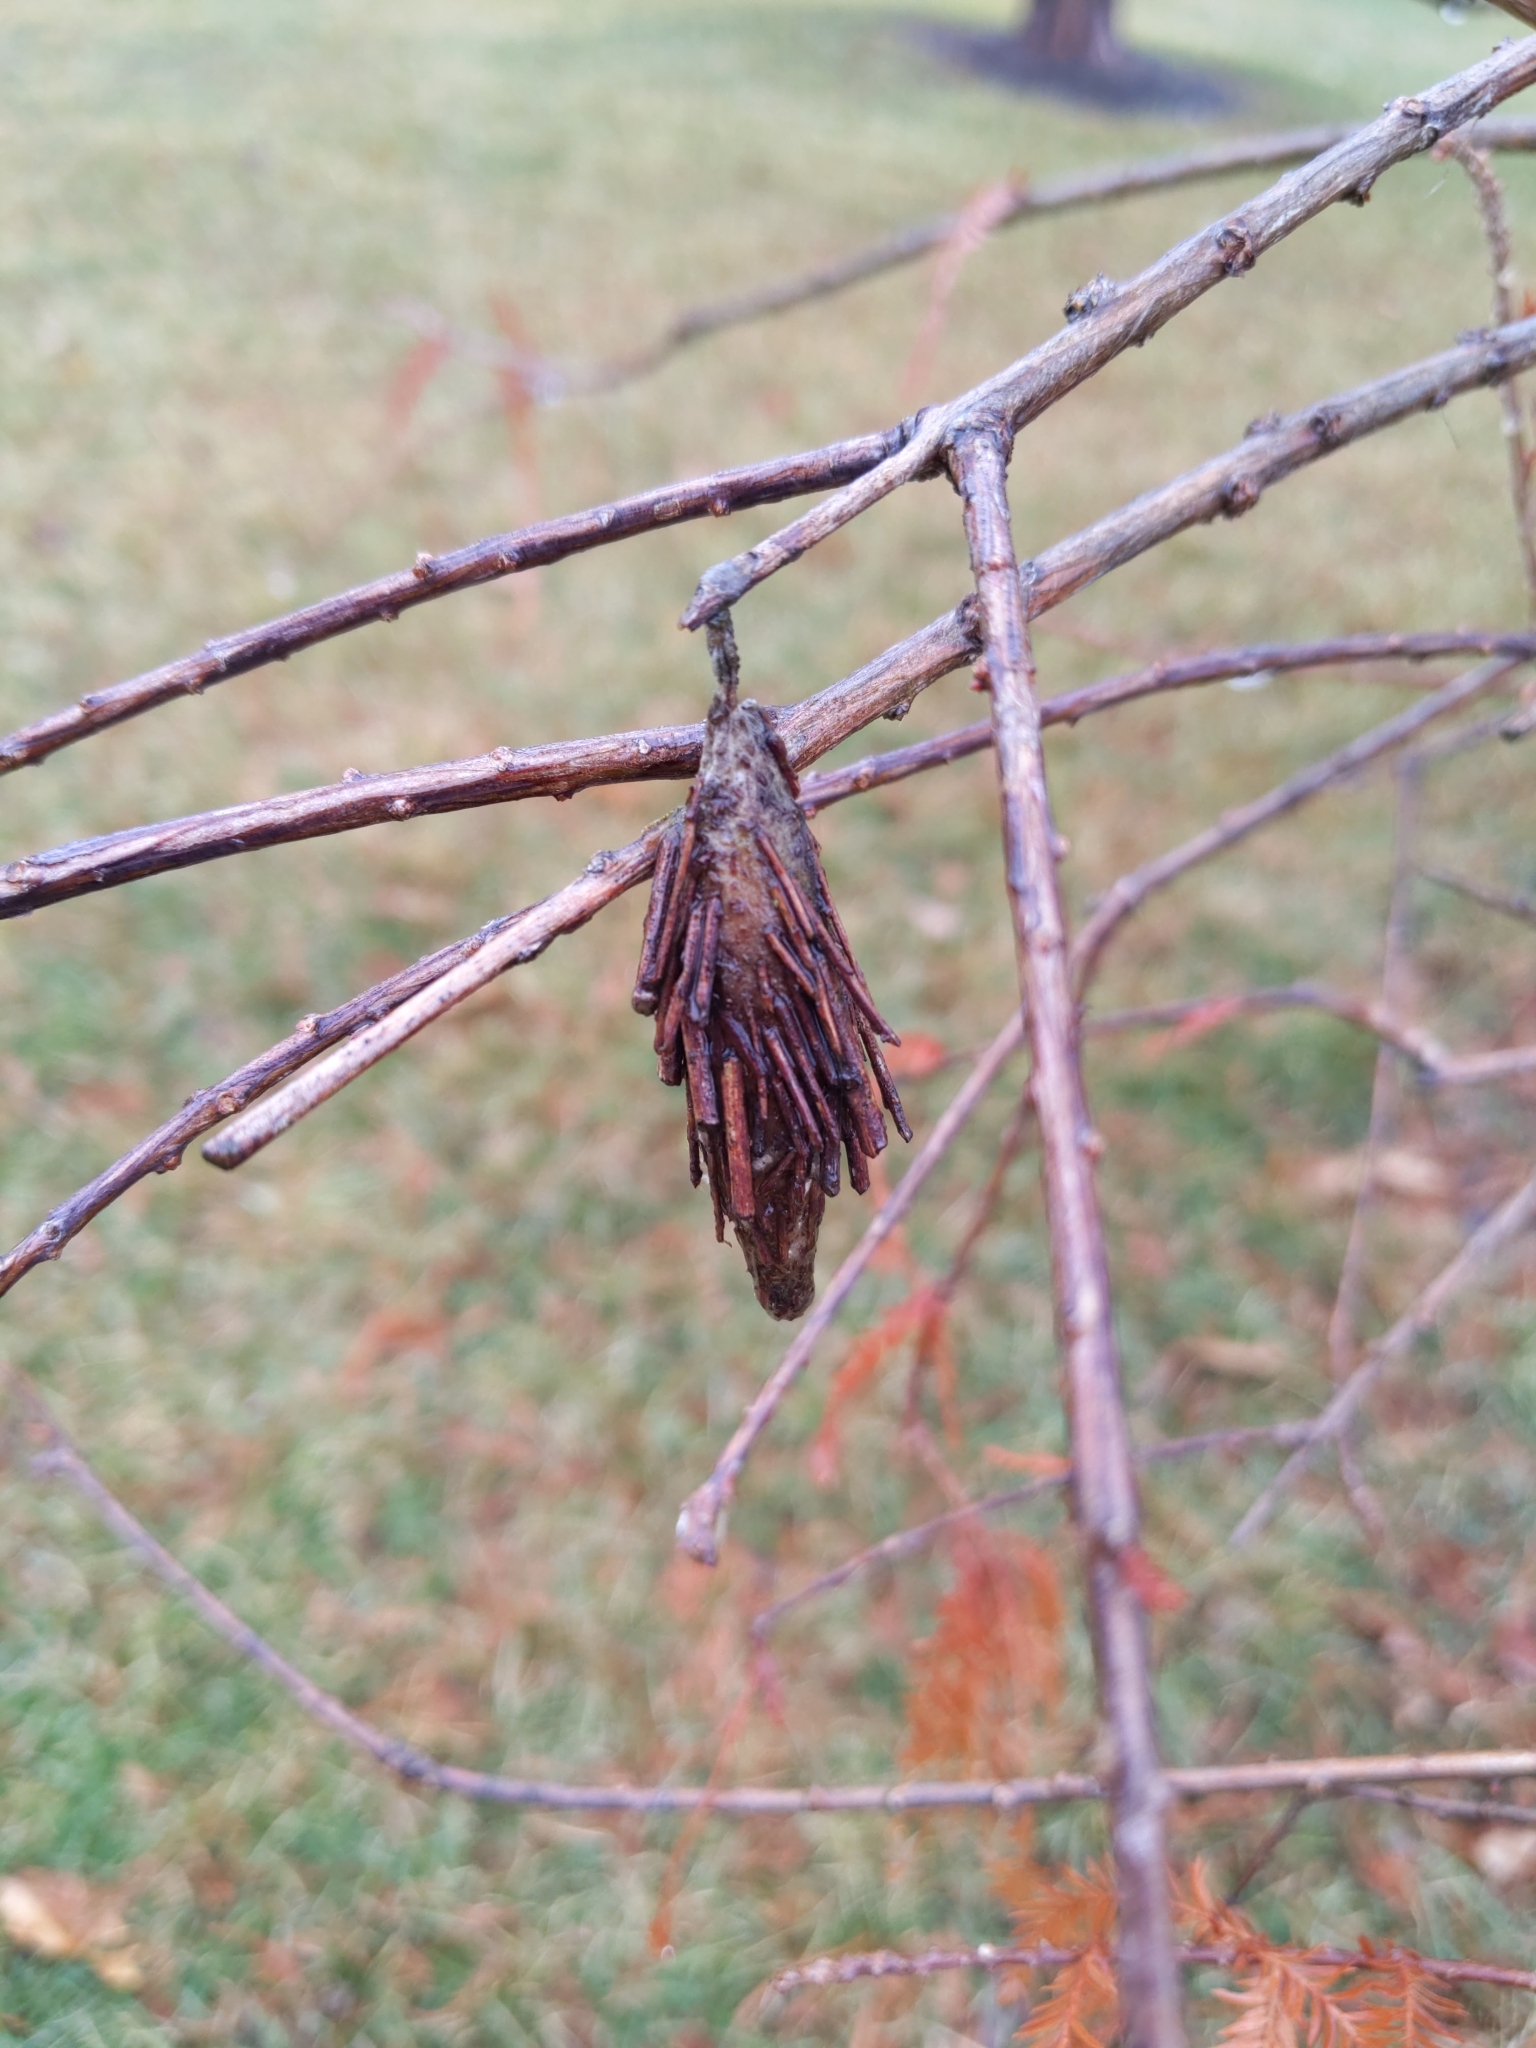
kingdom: Animalia
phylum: Arthropoda
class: Insecta
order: Lepidoptera
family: Psychidae
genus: Thyridopteryx
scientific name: Thyridopteryx ephemeraeformis
